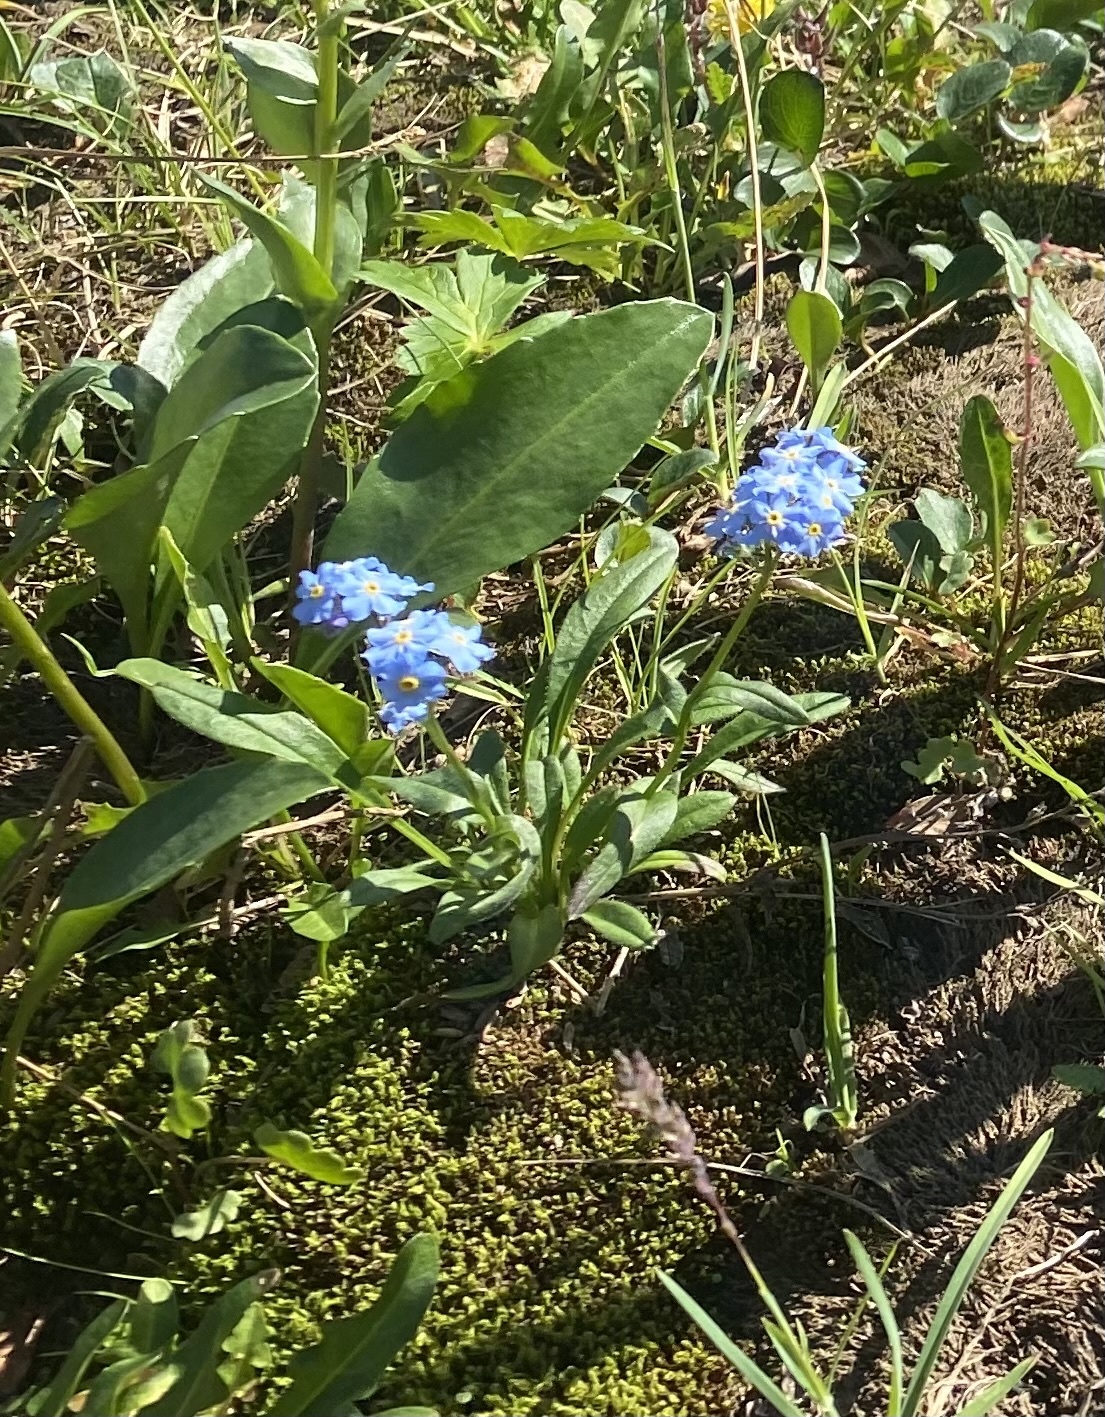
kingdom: Plantae
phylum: Tracheophyta
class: Magnoliopsida
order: Boraginales
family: Boraginaceae
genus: Myosotis
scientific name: Myosotis asiatica
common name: Asian forget-me-not
